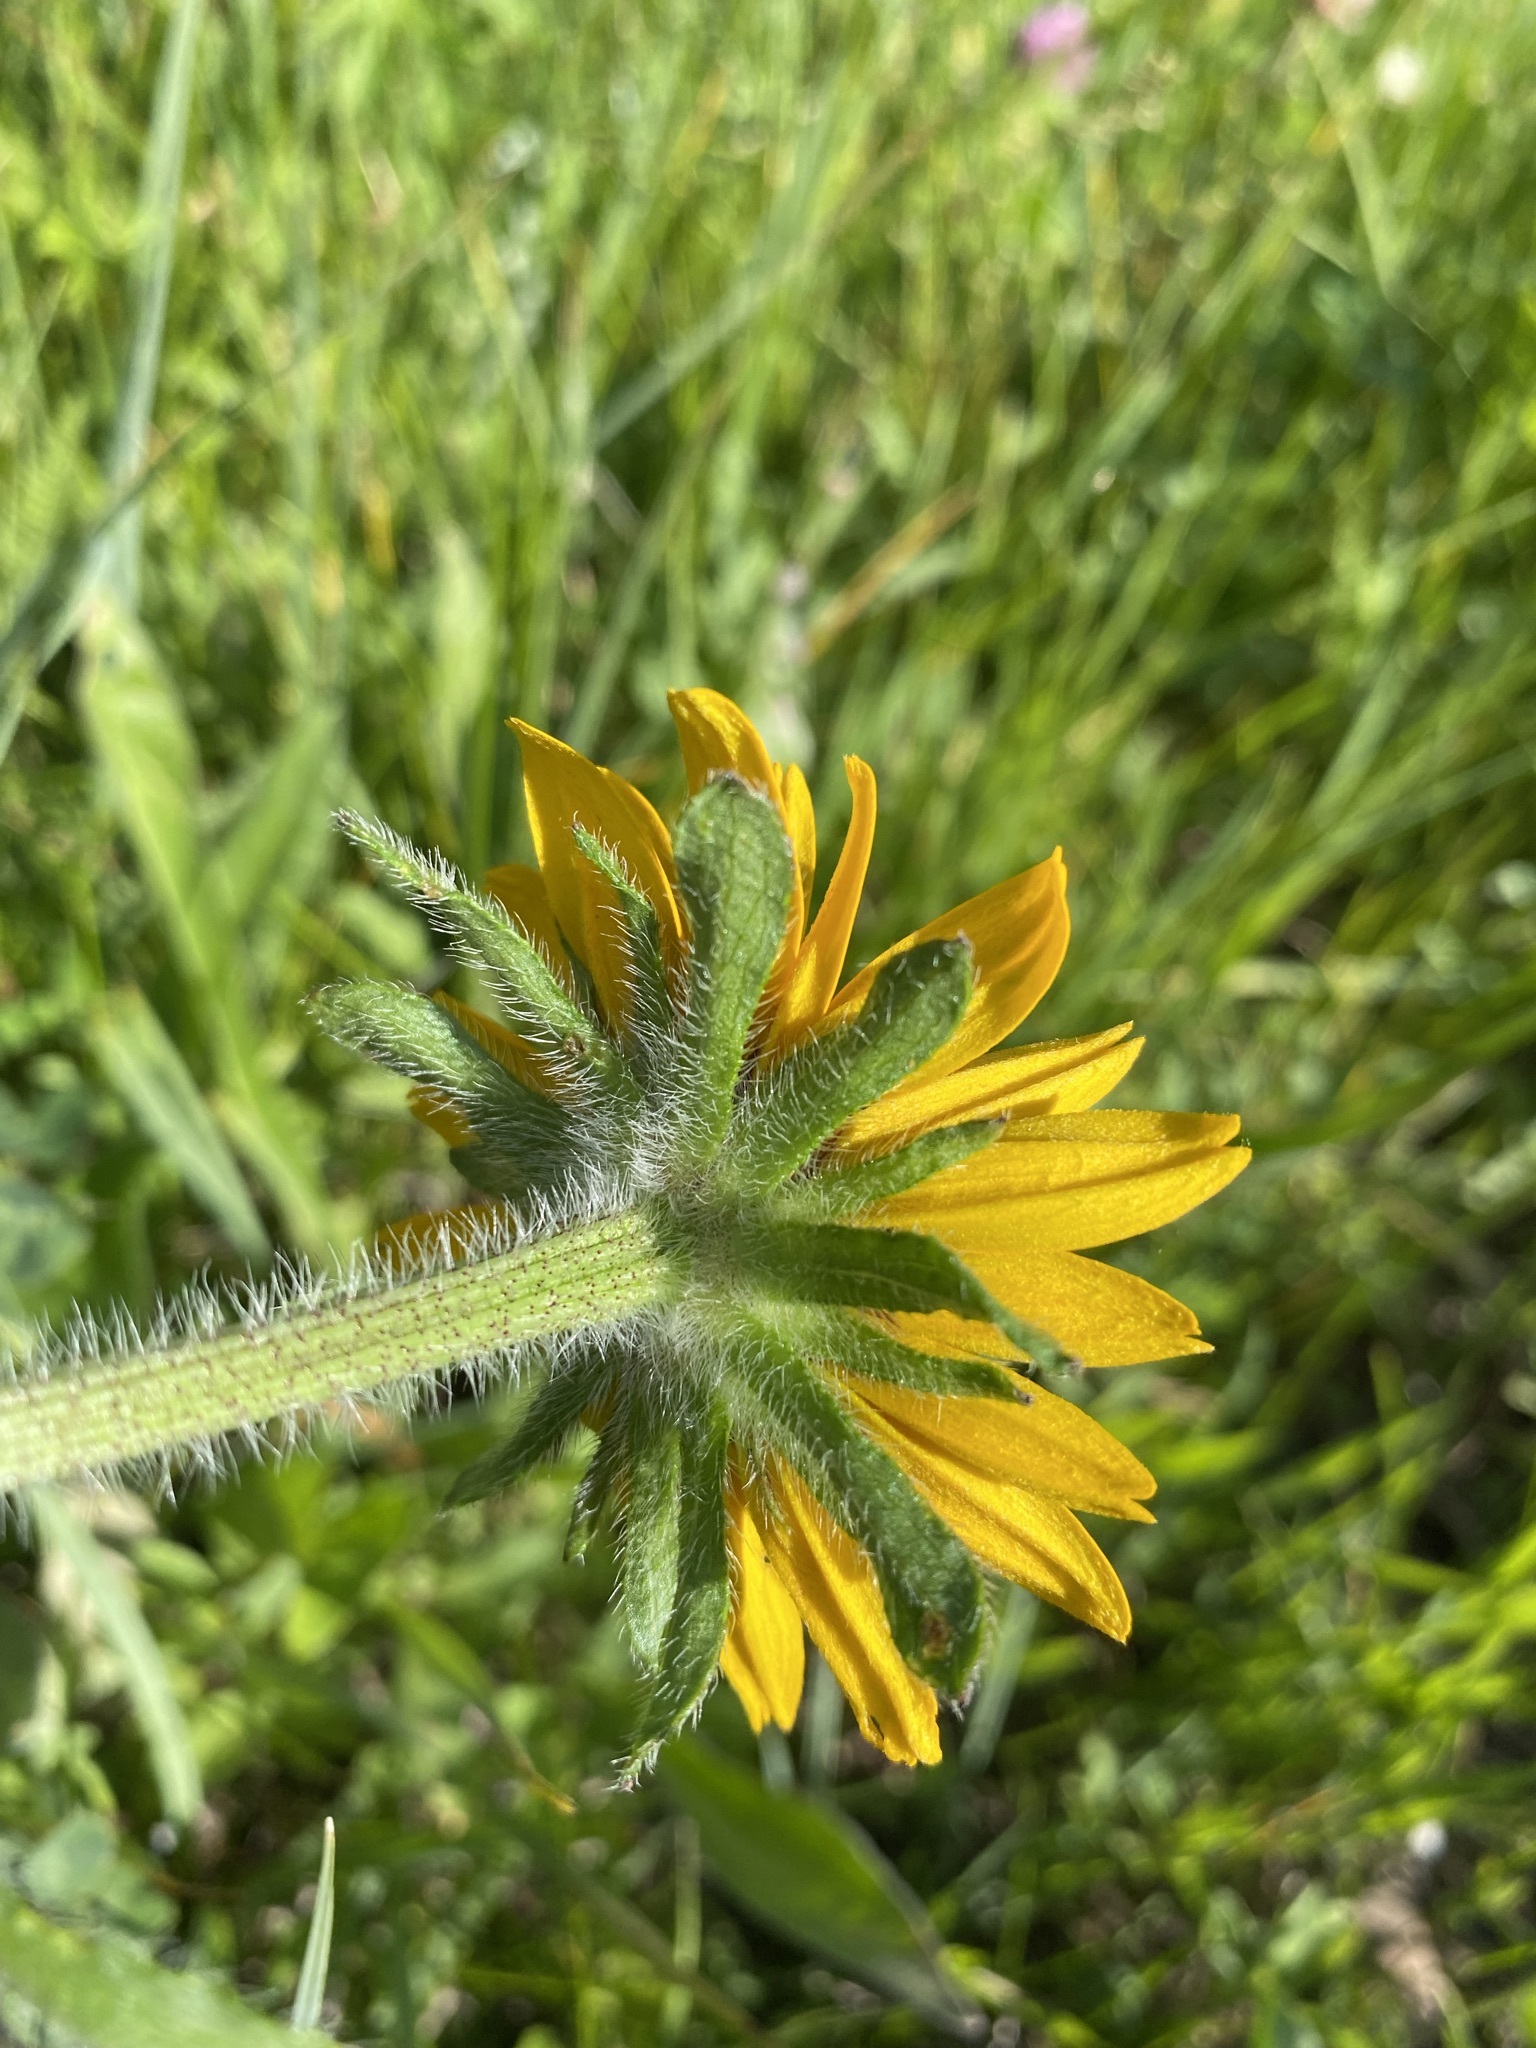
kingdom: Plantae
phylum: Tracheophyta
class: Magnoliopsida
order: Asterales
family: Asteraceae
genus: Rudbeckia
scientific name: Rudbeckia hirta
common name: Black-eyed-susan
